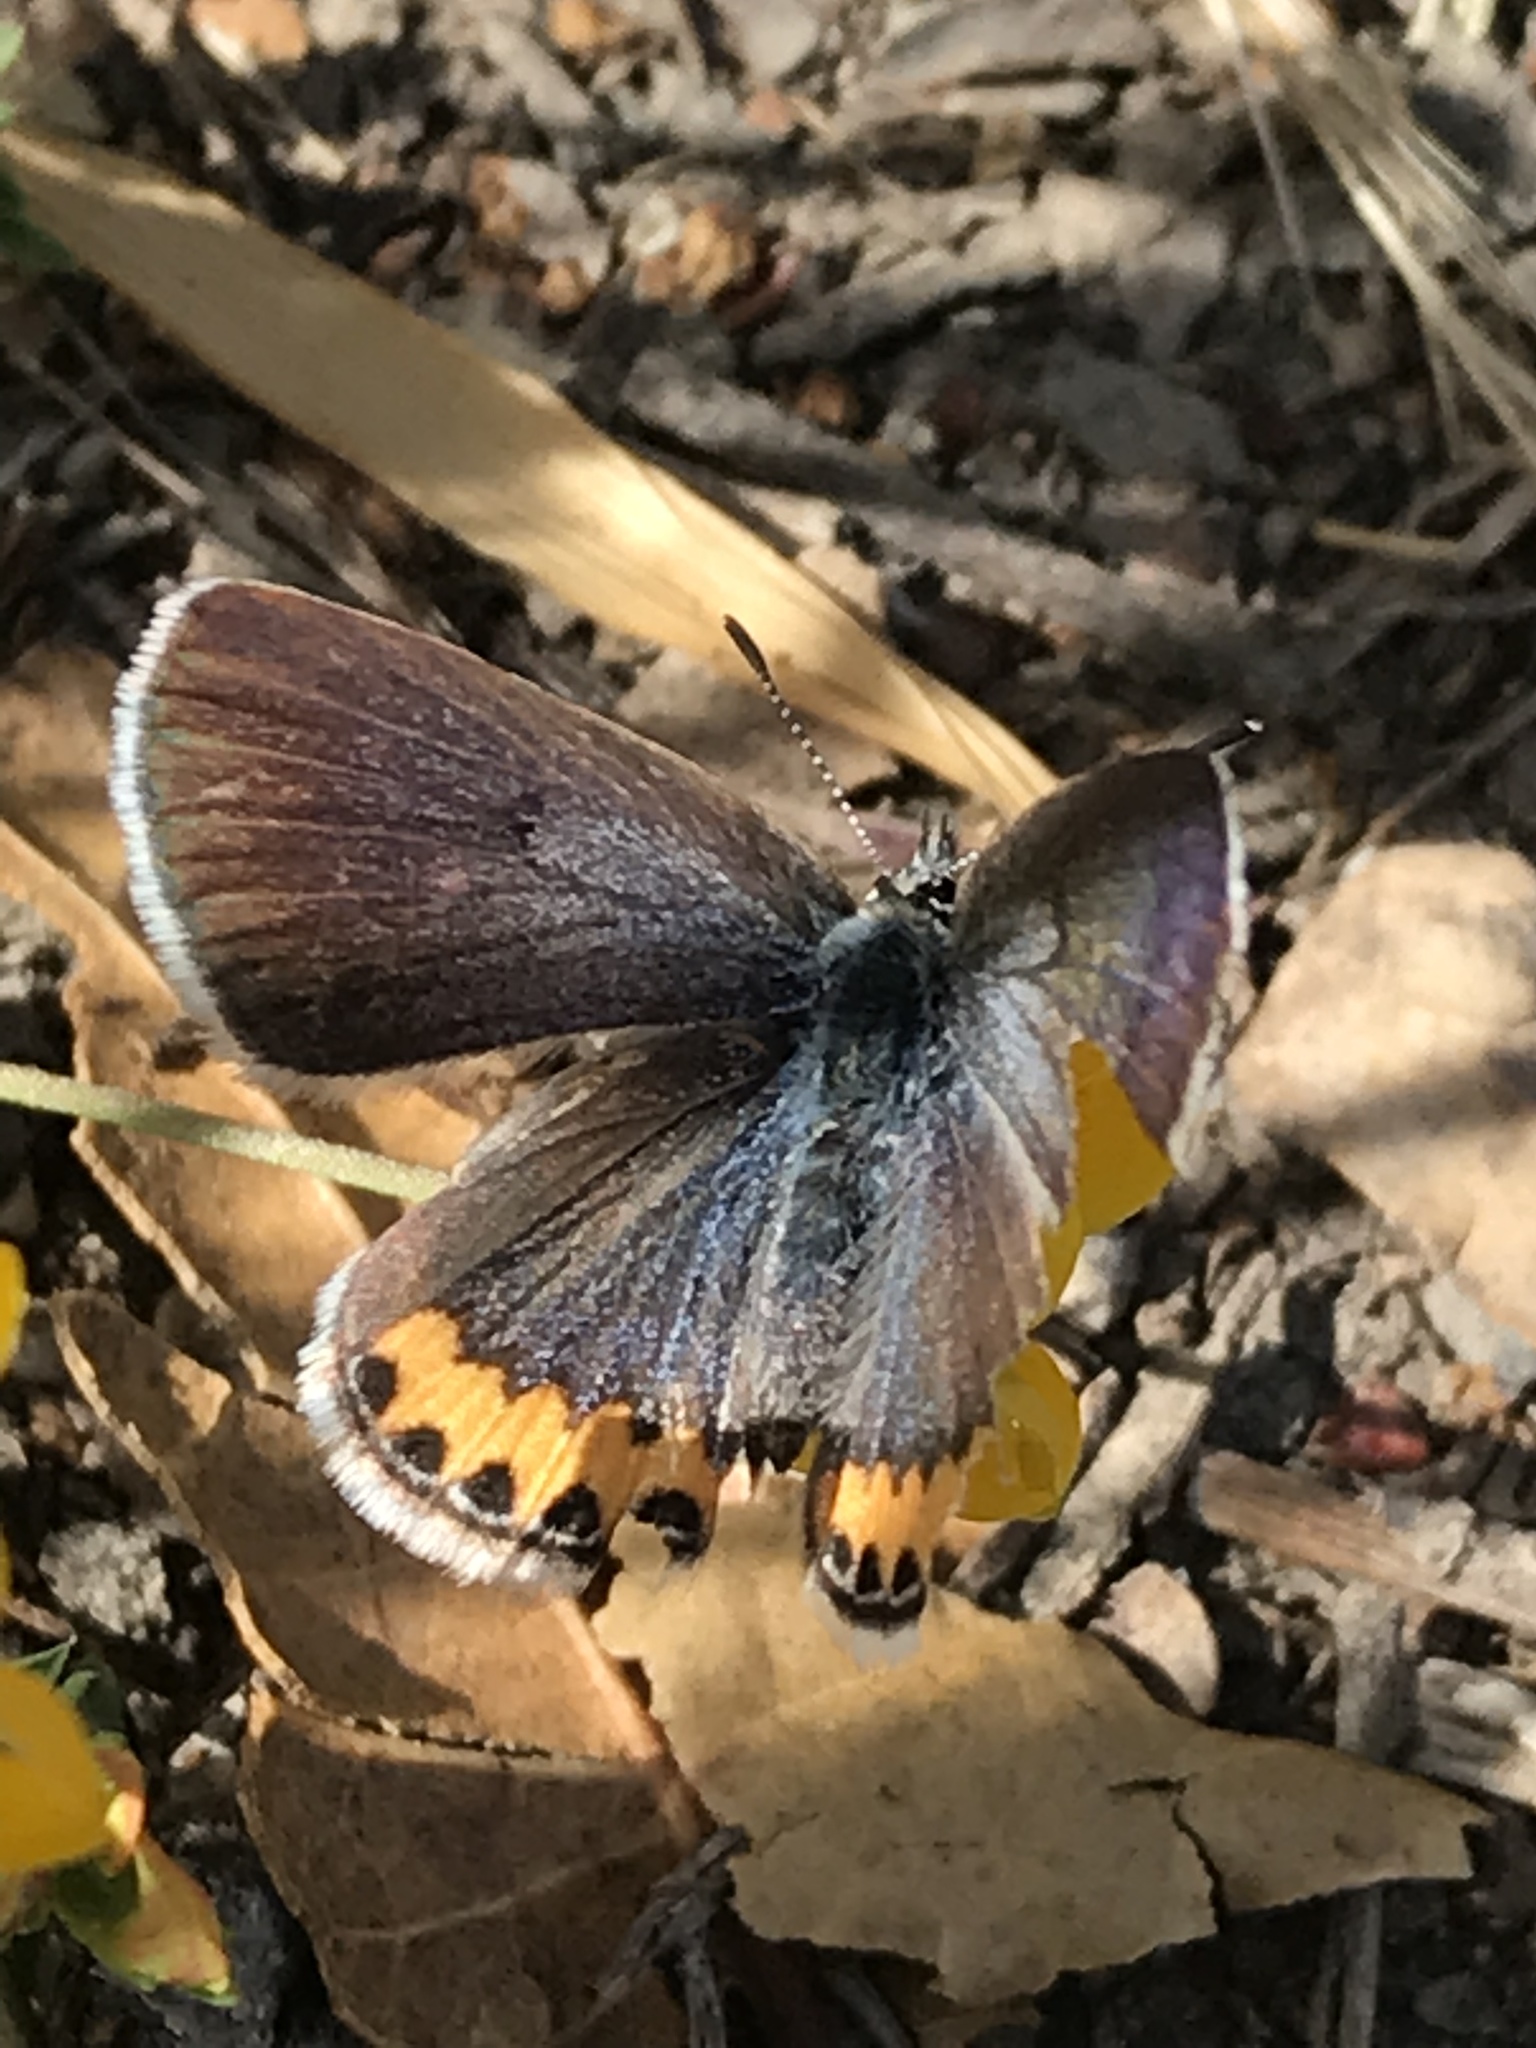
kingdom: Animalia
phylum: Arthropoda
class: Insecta
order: Lepidoptera
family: Lycaenidae
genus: Icaricia
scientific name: Icaricia acmon
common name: Acmon blue
